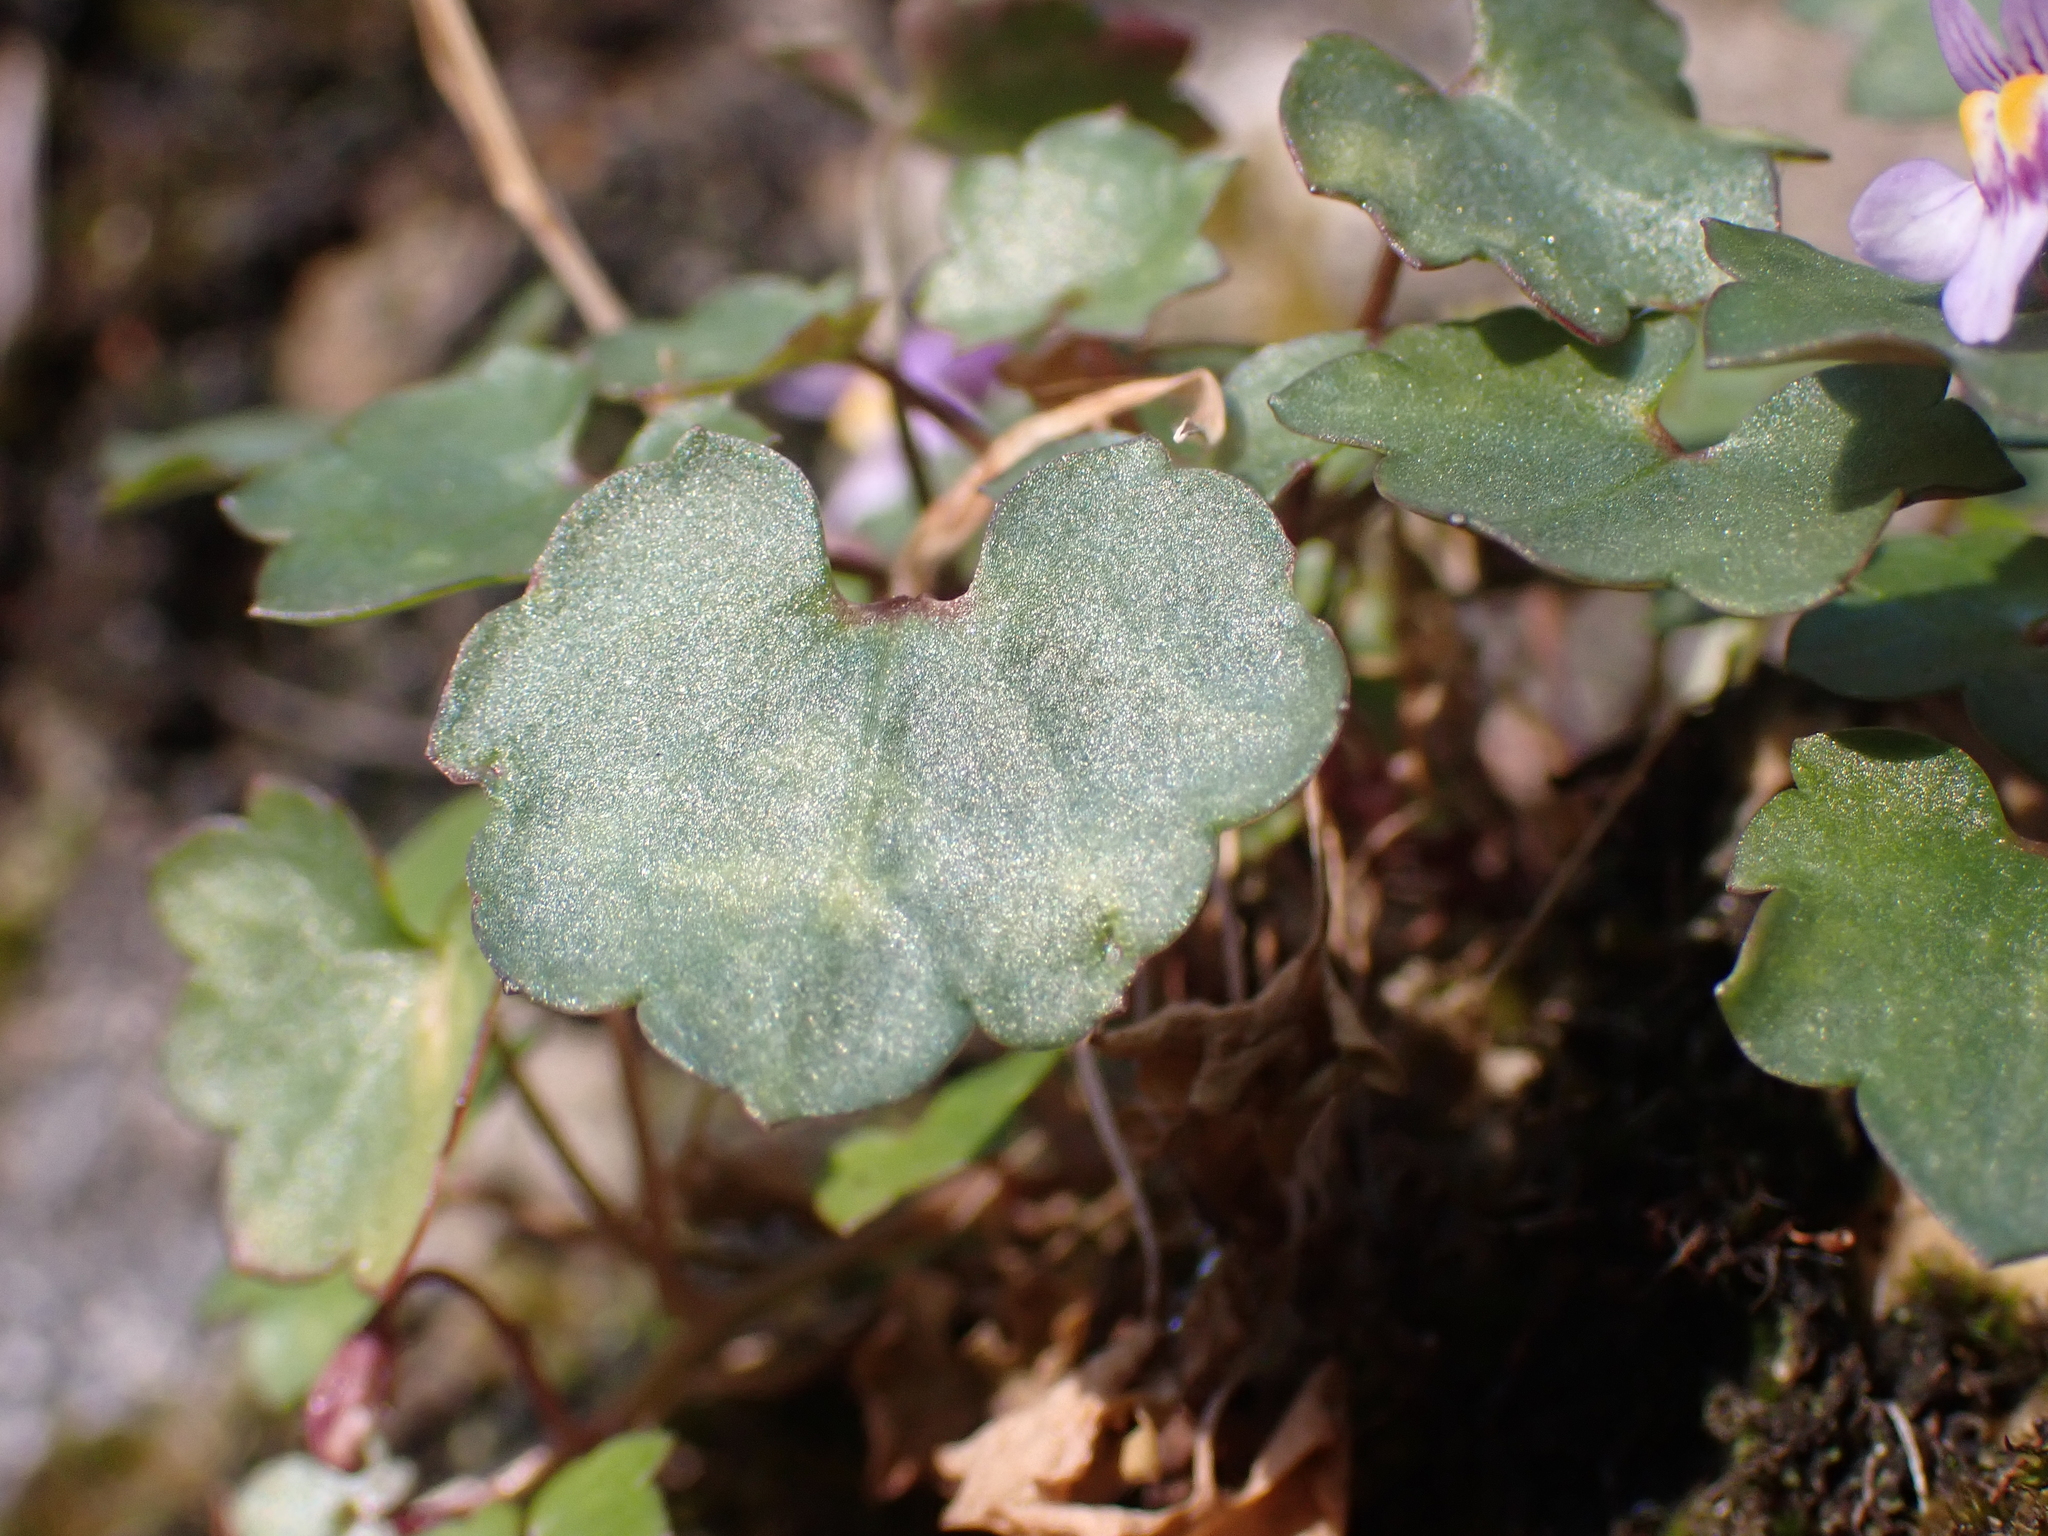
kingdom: Plantae
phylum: Tracheophyta
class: Magnoliopsida
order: Lamiales
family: Plantaginaceae
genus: Cymbalaria
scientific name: Cymbalaria muralis
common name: Ivy-leaved toadflax
